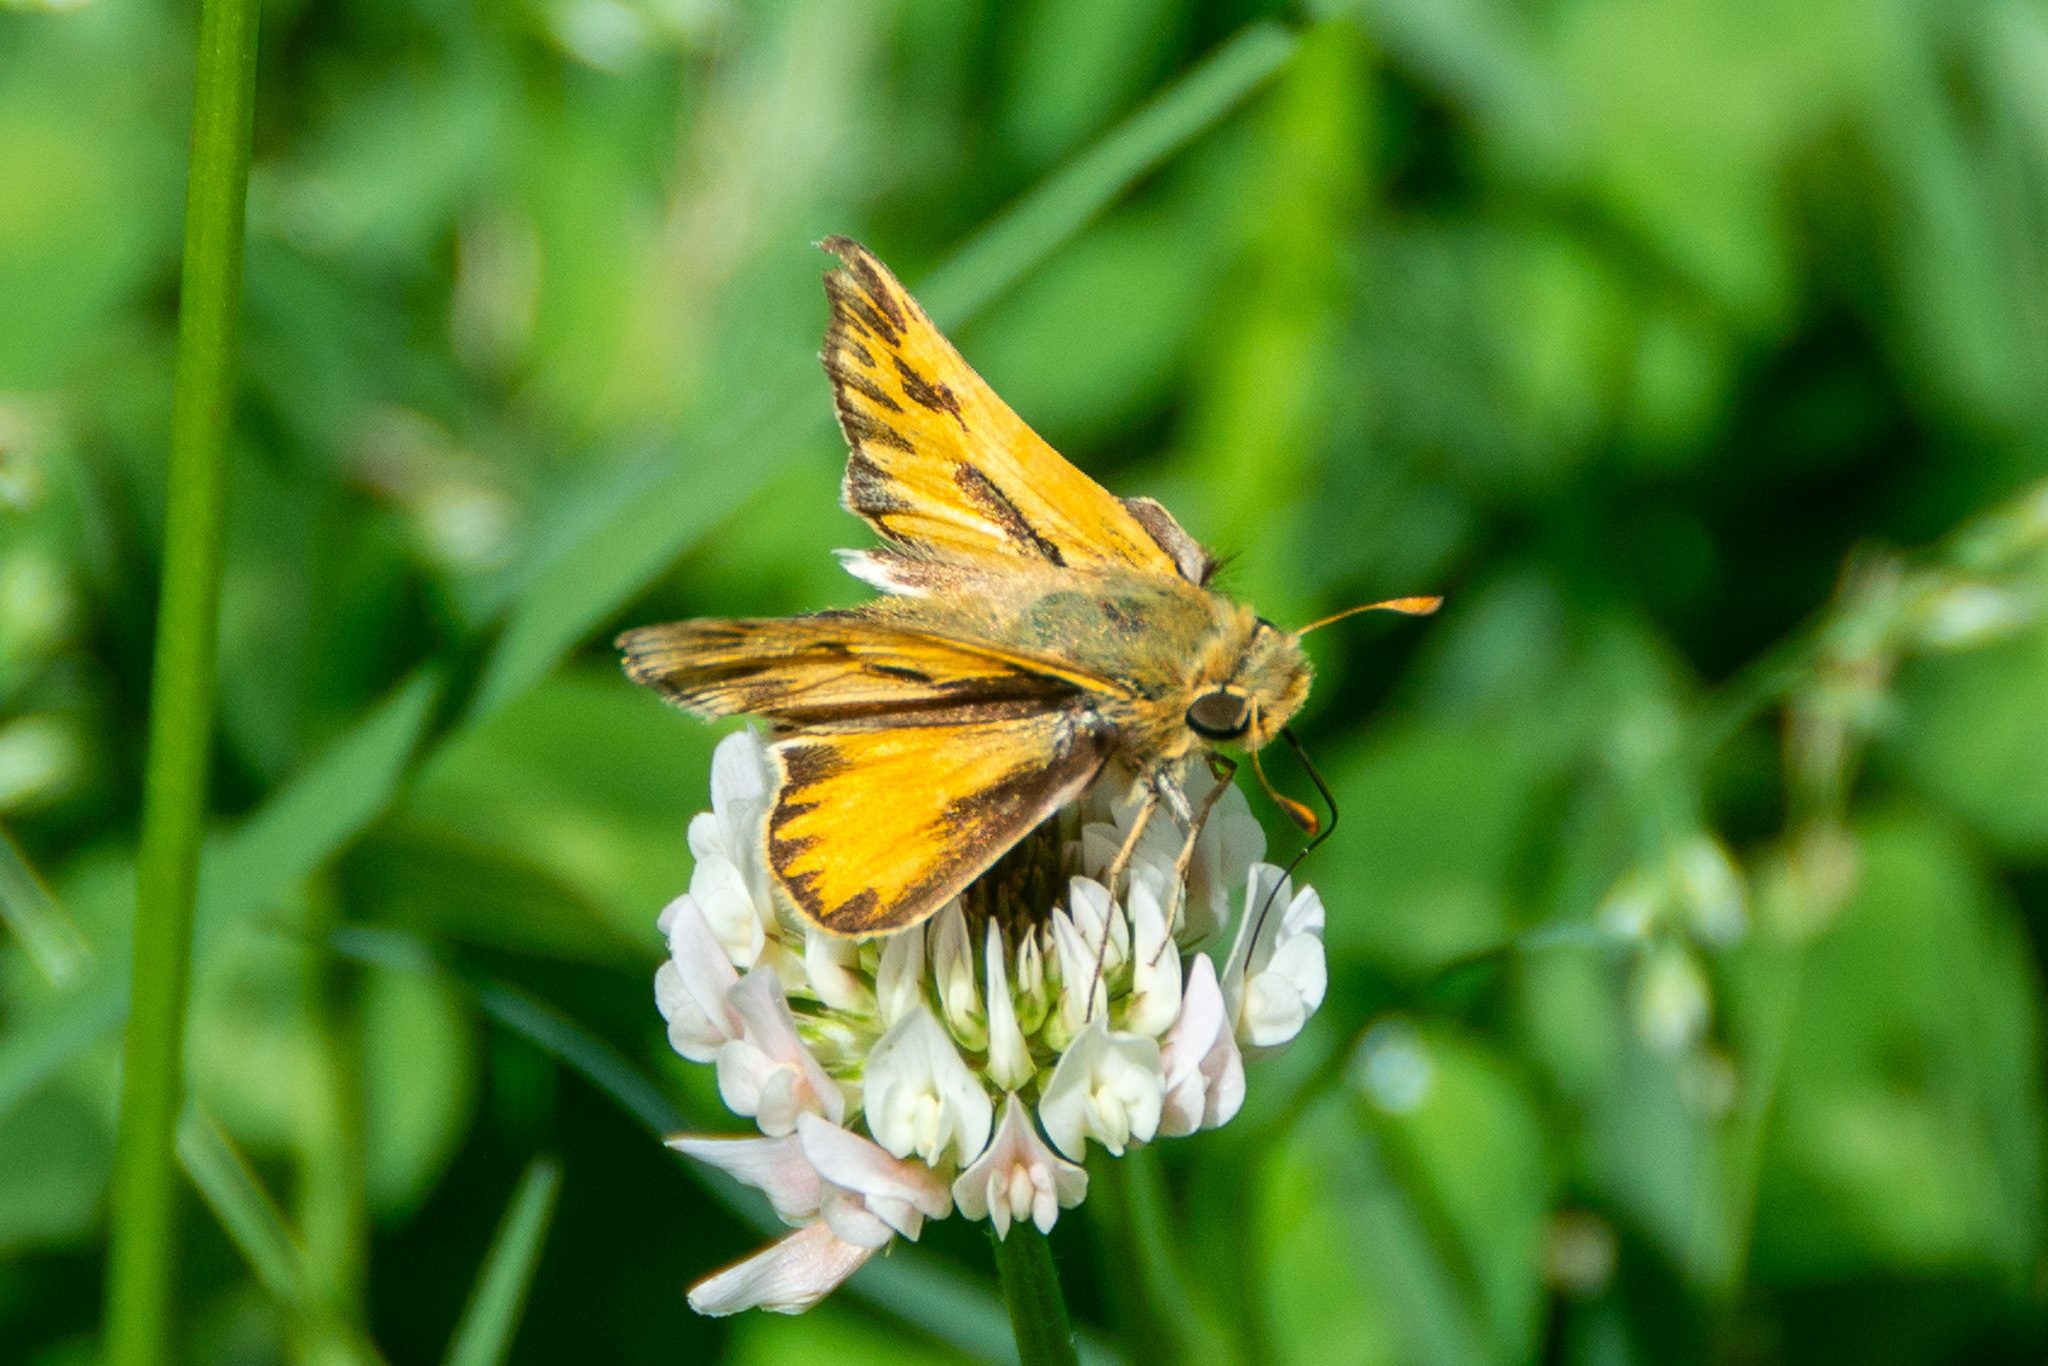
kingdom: Animalia
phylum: Arthropoda
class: Insecta
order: Lepidoptera
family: Hesperiidae
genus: Hylephila
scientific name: Hylephila phyleus
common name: Fiery skipper
